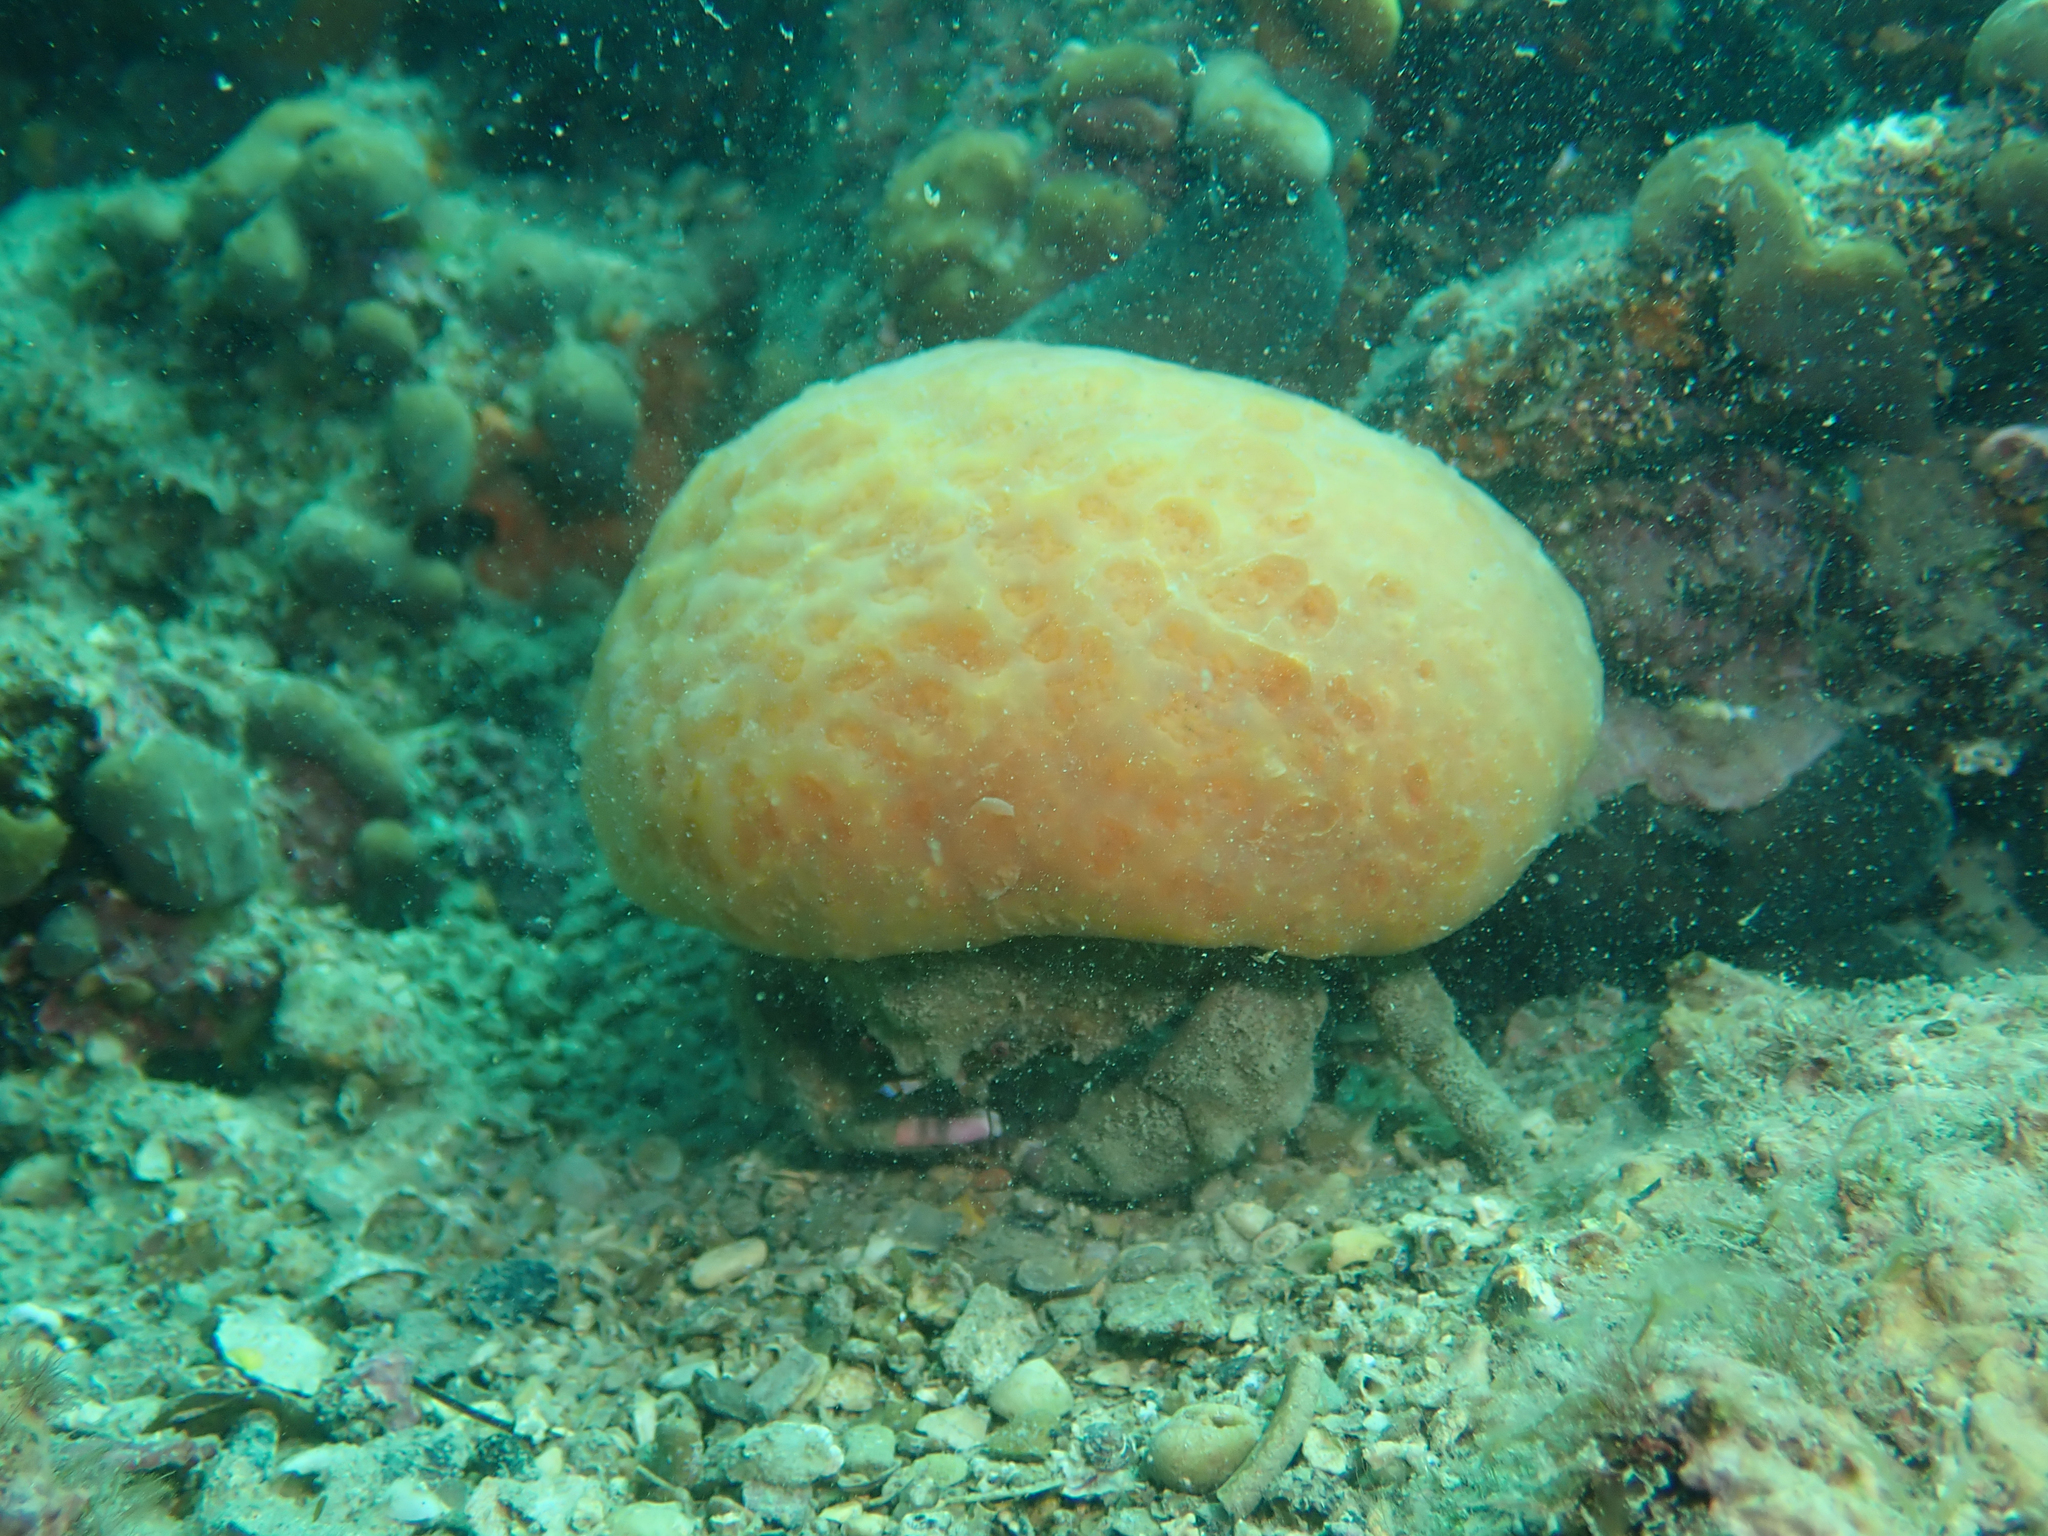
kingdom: Animalia
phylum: Arthropoda
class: Malacostraca
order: Decapoda
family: Dromiidae
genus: Dromia
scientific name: Dromia personata
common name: Sleepy crab
